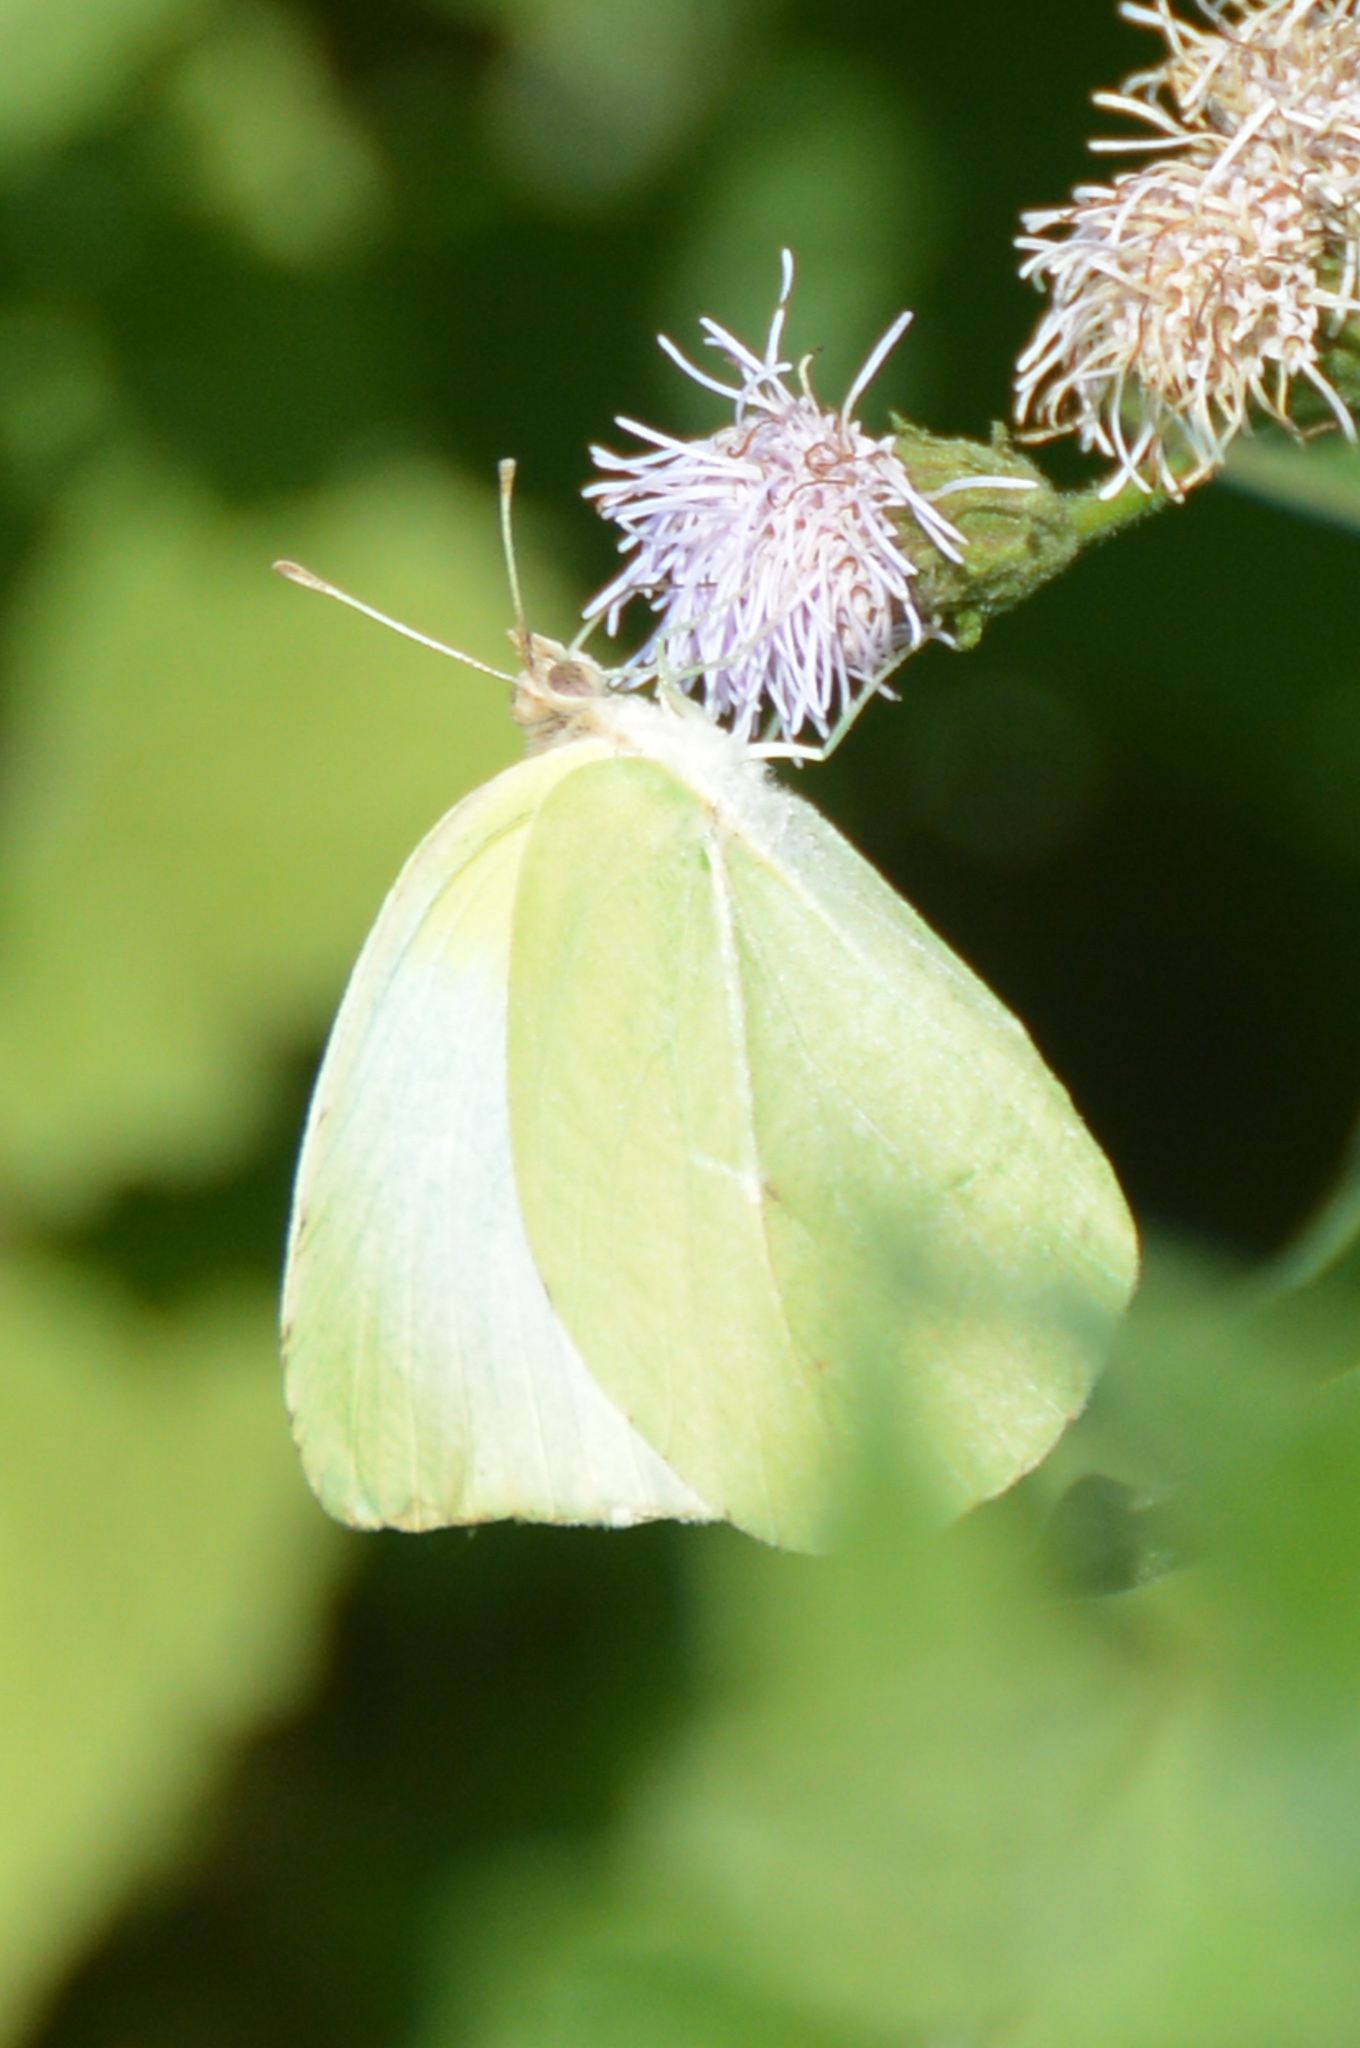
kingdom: Animalia
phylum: Arthropoda
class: Insecta
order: Lepidoptera
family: Pieridae
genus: Kricogonia
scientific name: Kricogonia lyside
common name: Guayacan sulphur,
